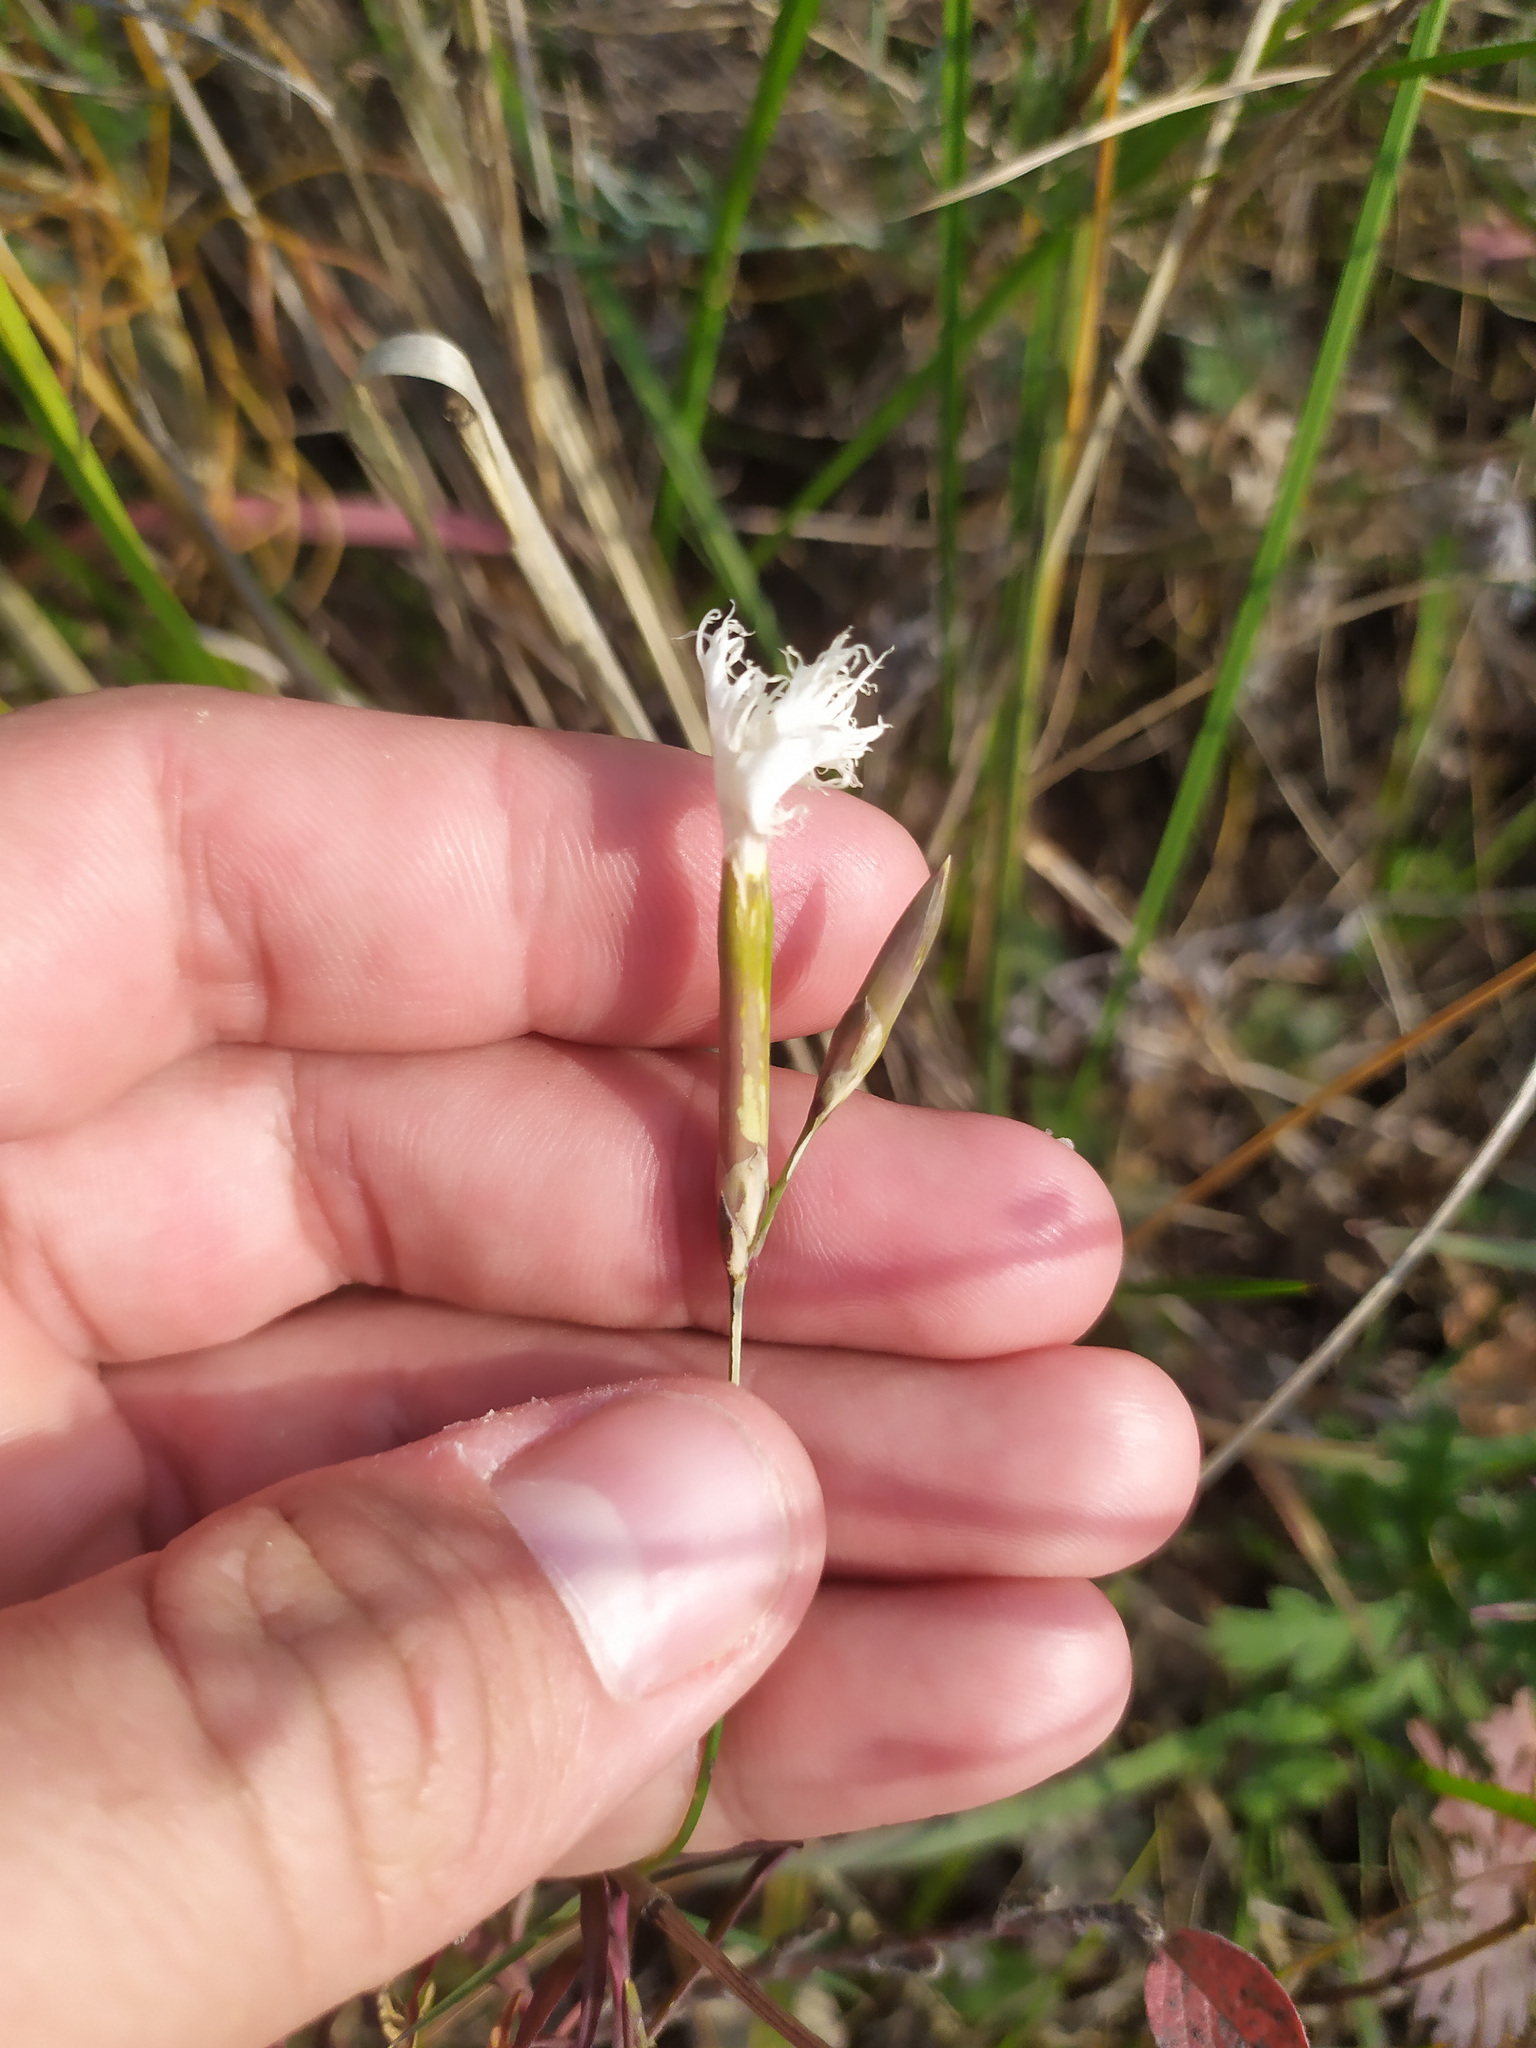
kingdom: Plantae
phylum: Tracheophyta
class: Magnoliopsida
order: Caryophyllales
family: Caryophyllaceae
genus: Dianthus
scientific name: Dianthus acicularis
